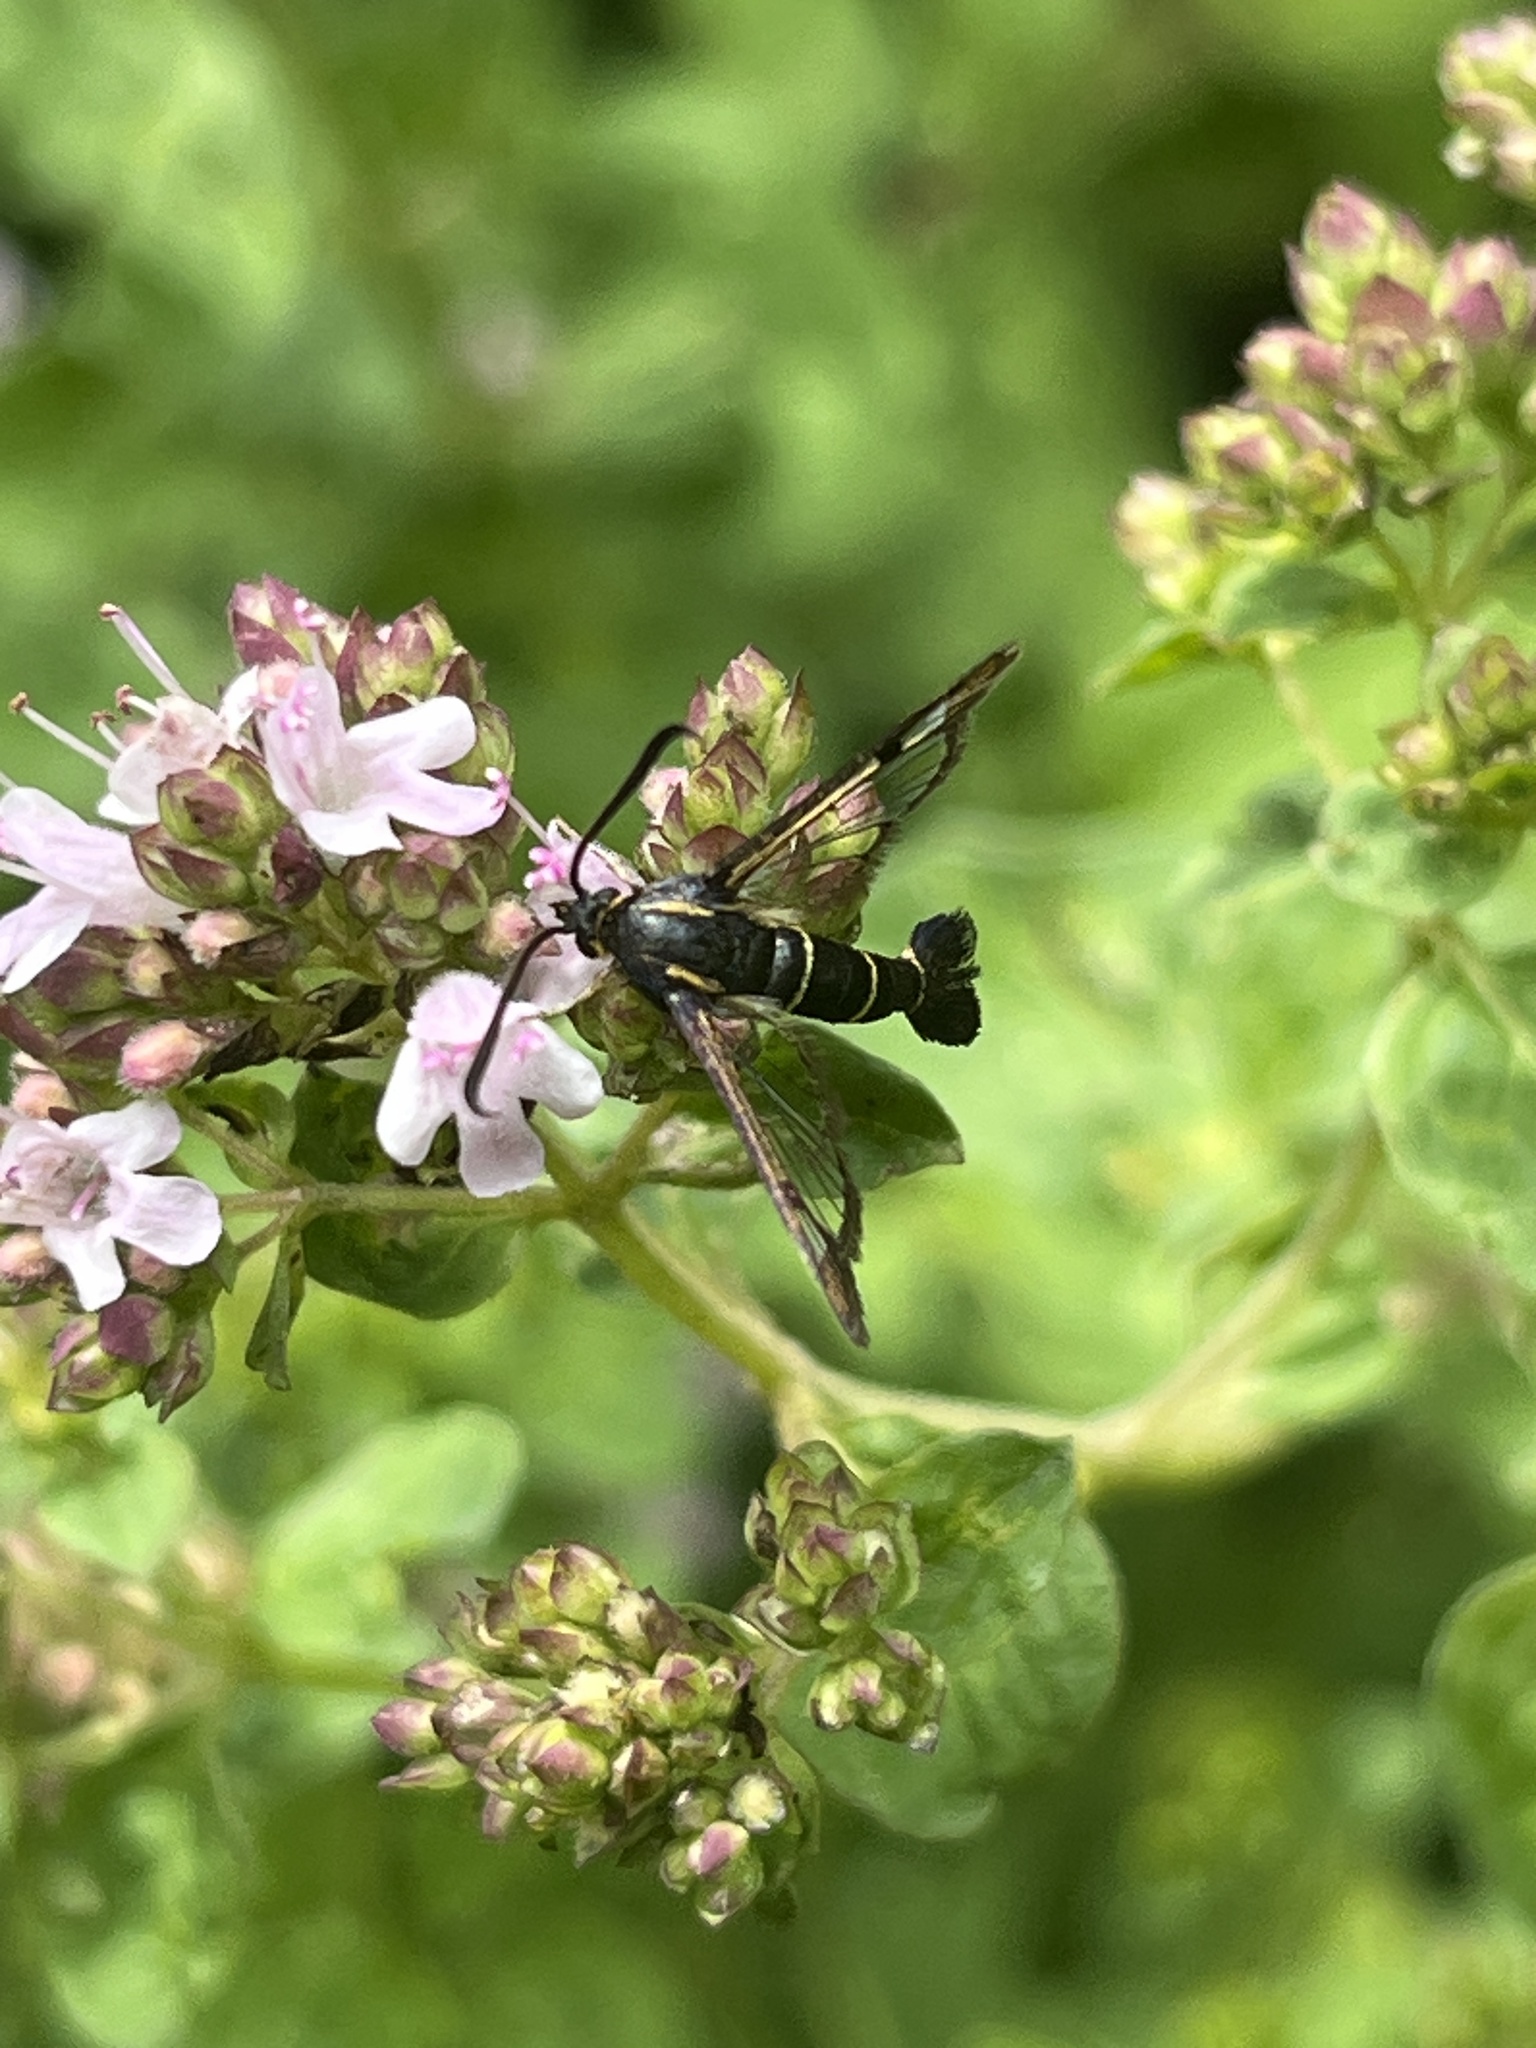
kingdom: Animalia
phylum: Arthropoda
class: Insecta
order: Lepidoptera
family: Sesiidae
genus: Synanthedon
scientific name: Synanthedon tipuliformis
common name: Currant clearwing
